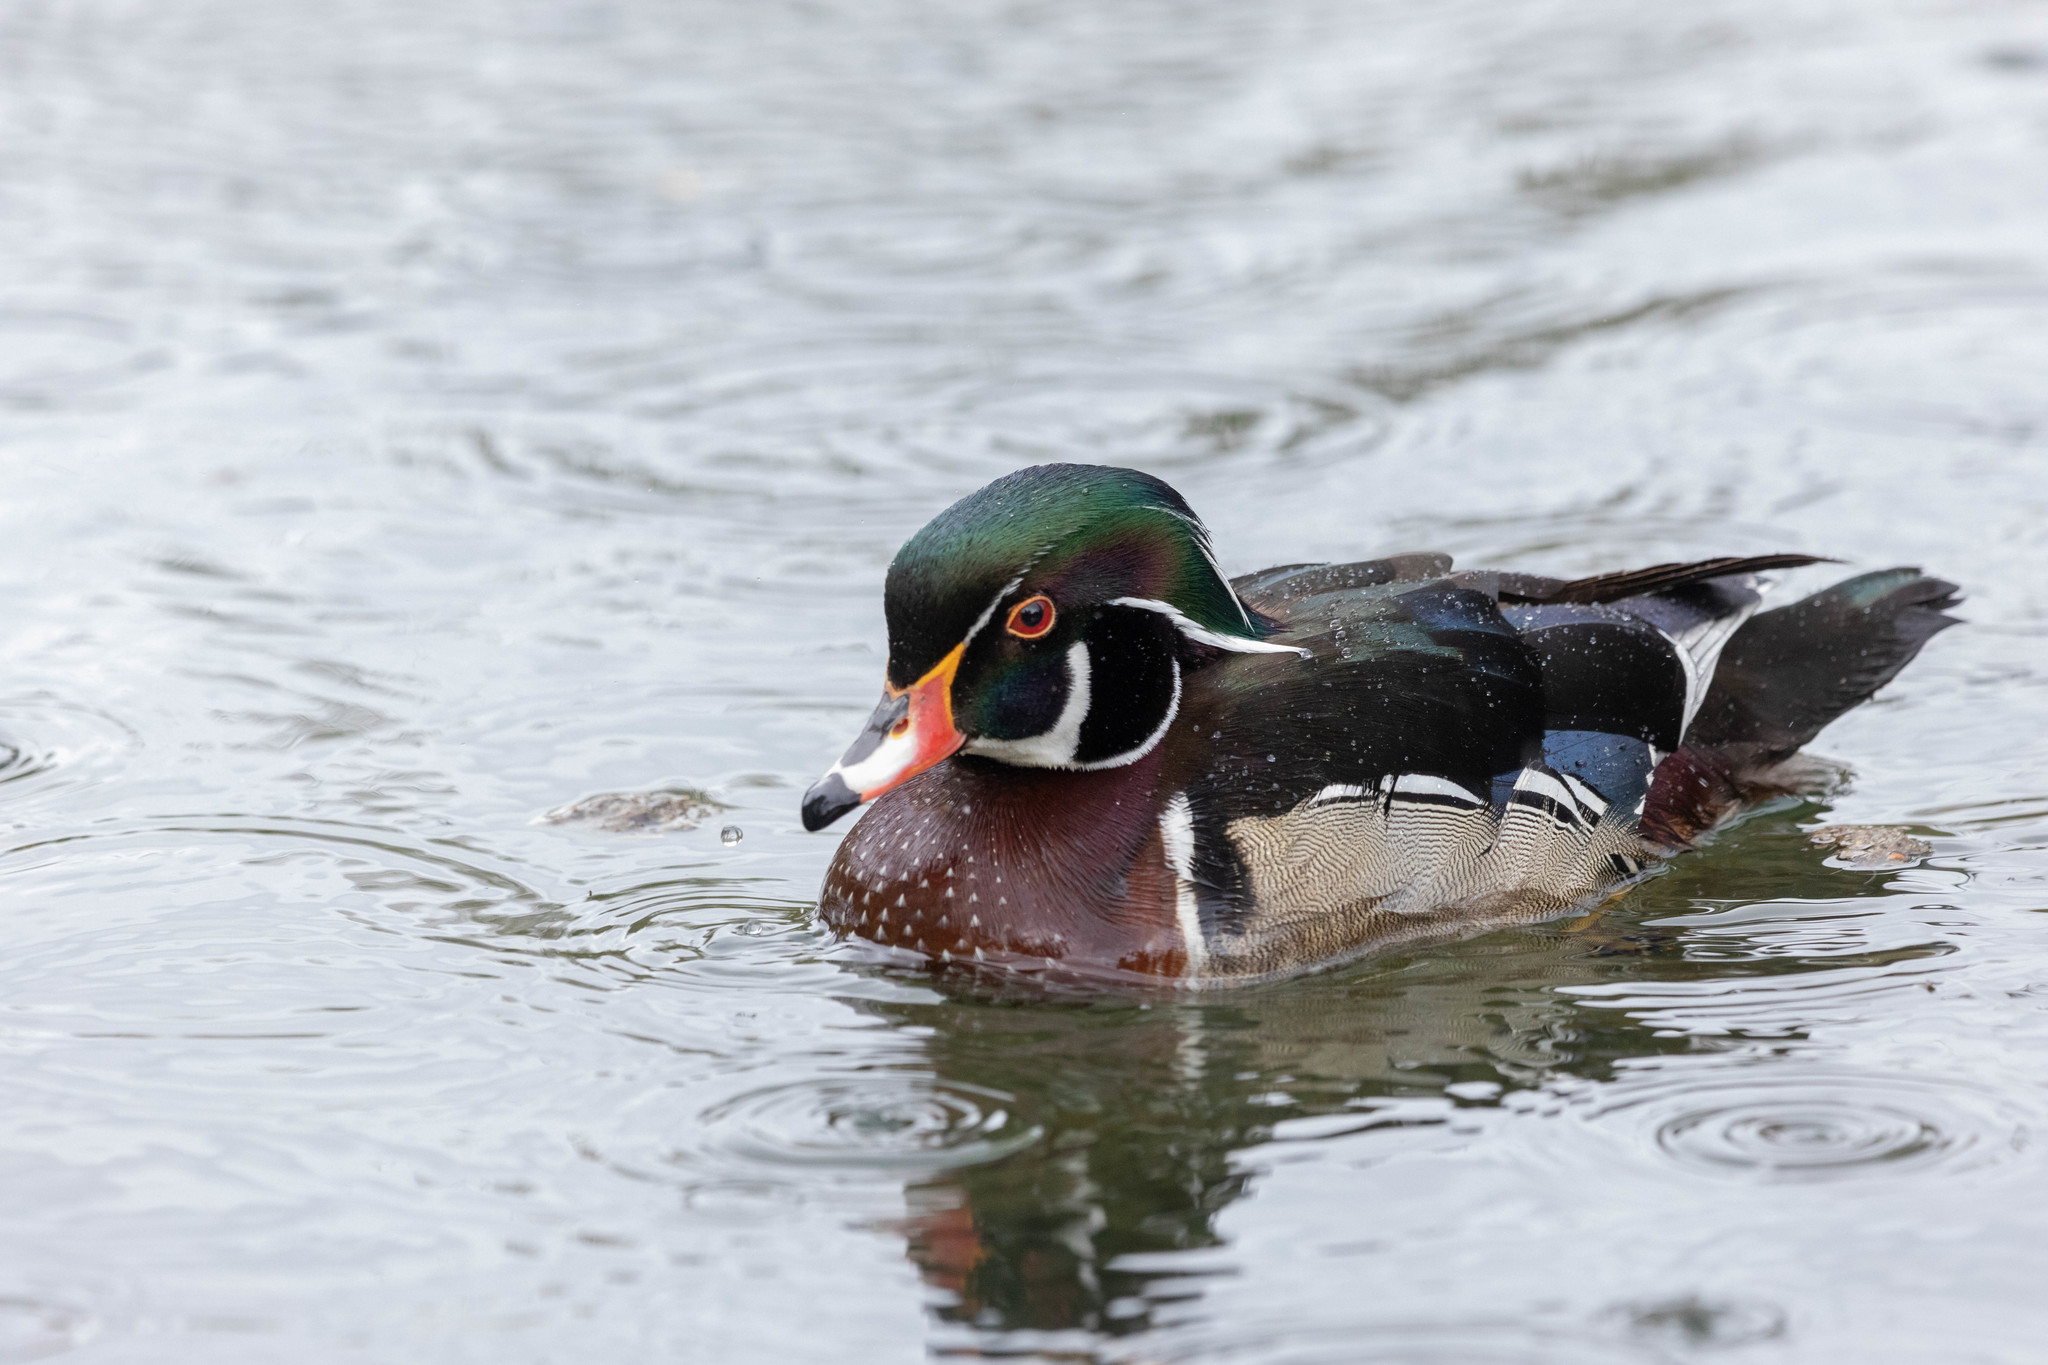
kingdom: Animalia
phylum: Chordata
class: Aves
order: Anseriformes
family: Anatidae
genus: Aix
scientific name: Aix sponsa
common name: Wood duck
